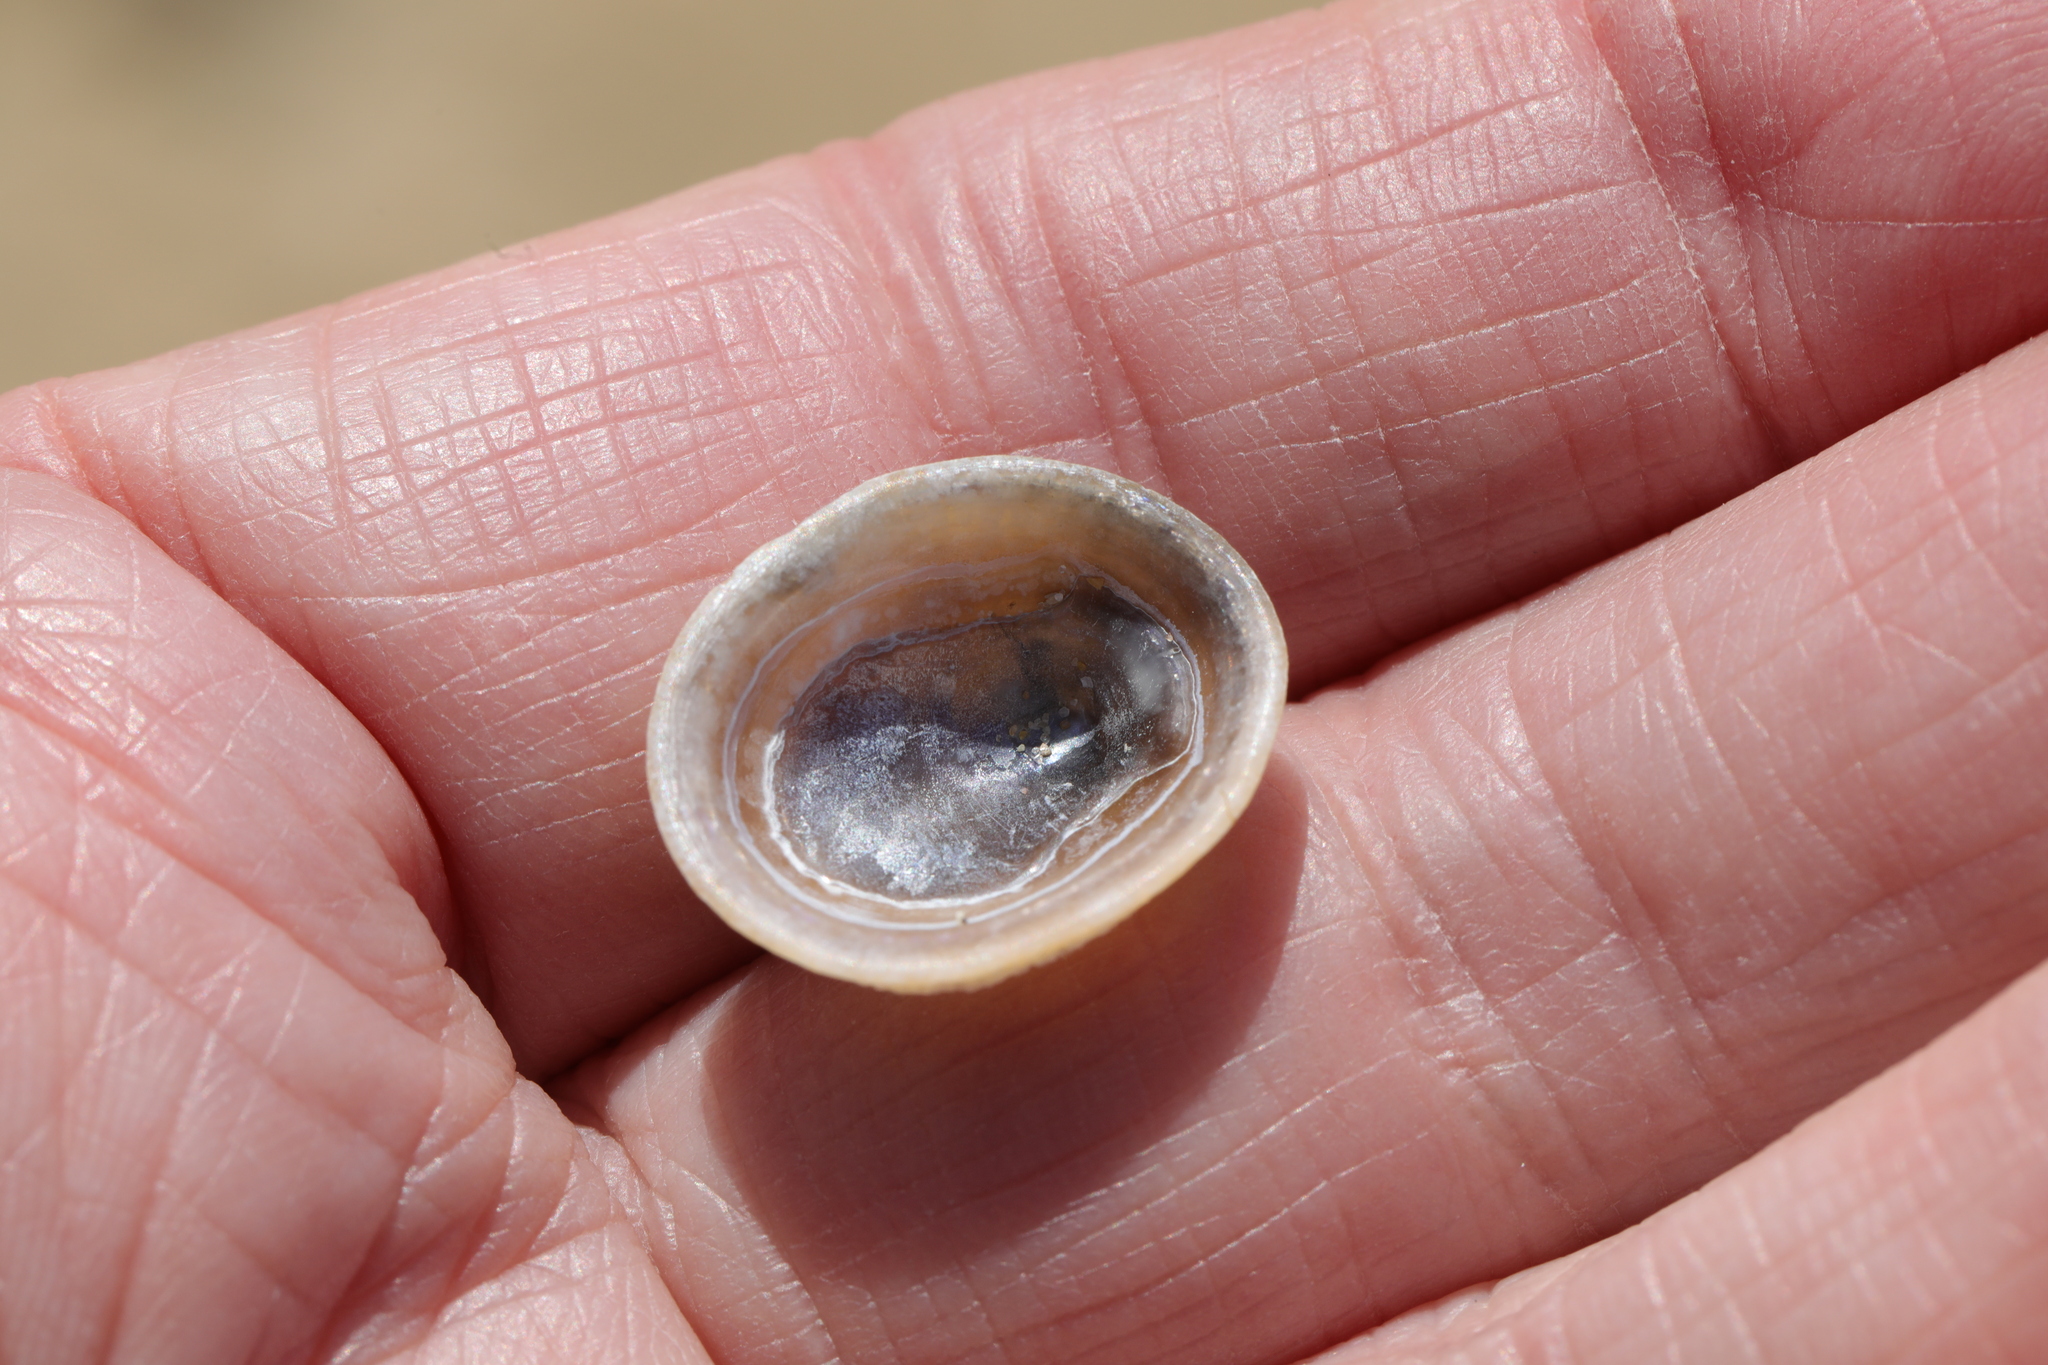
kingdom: Animalia
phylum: Mollusca
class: Gastropoda
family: Patellidae
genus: Patella
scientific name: Patella pellucida
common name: Blue-rayed limpet
